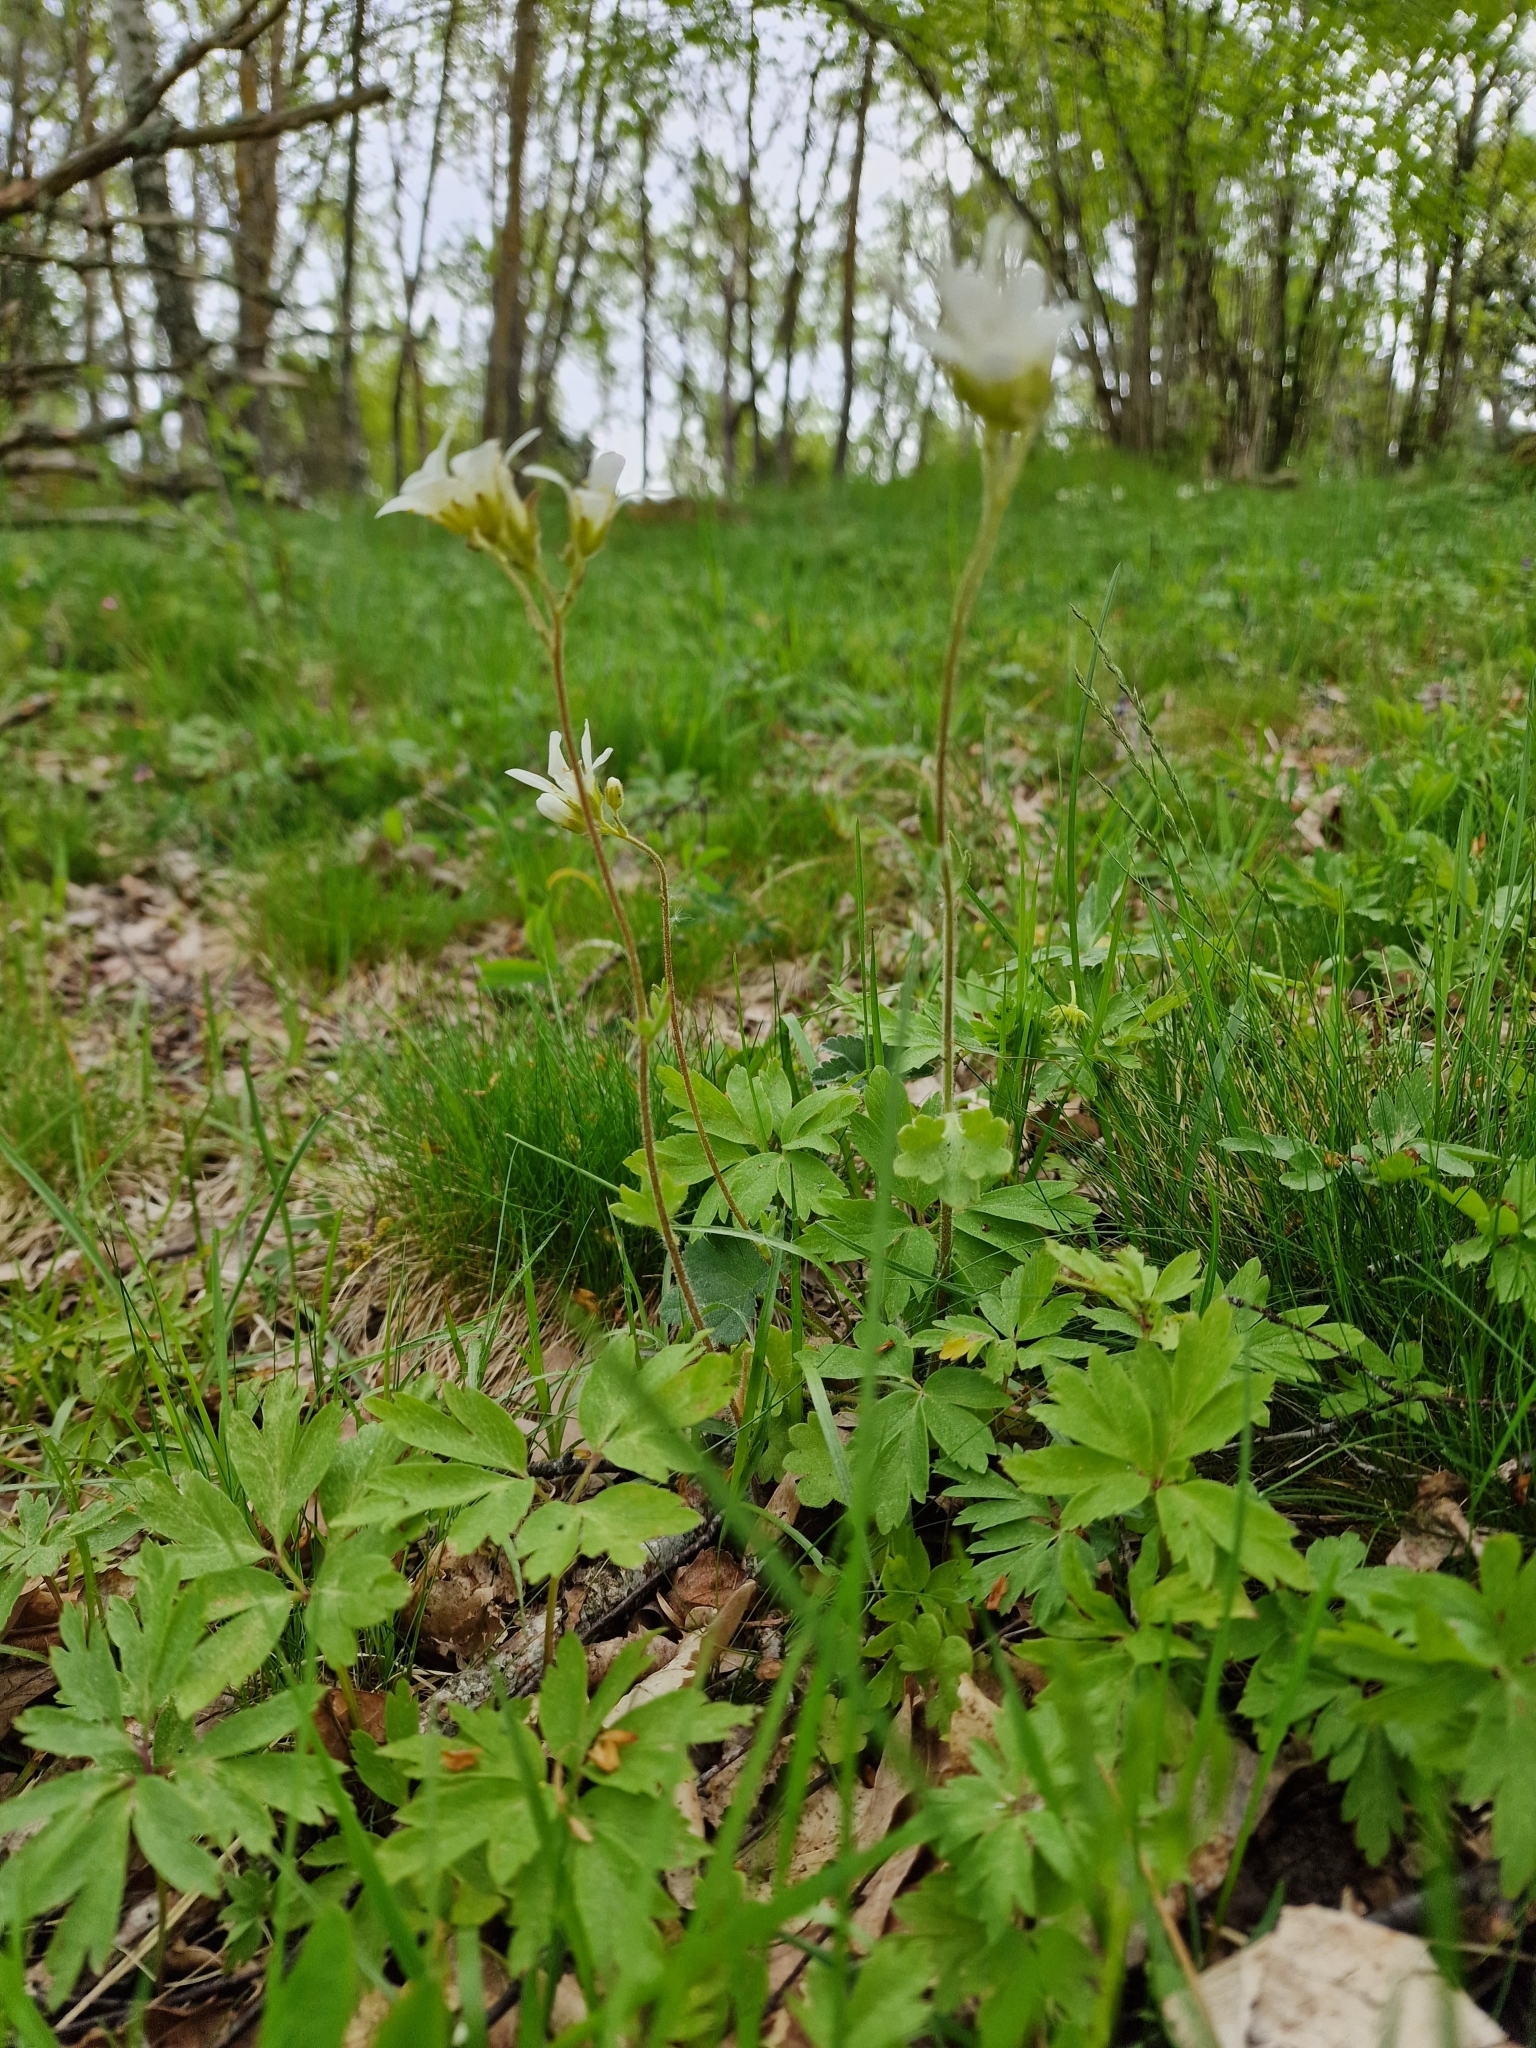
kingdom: Plantae
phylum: Tracheophyta
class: Magnoliopsida
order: Saxifragales
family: Saxifragaceae
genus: Saxifraga
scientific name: Saxifraga granulata
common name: Meadow saxifrage
